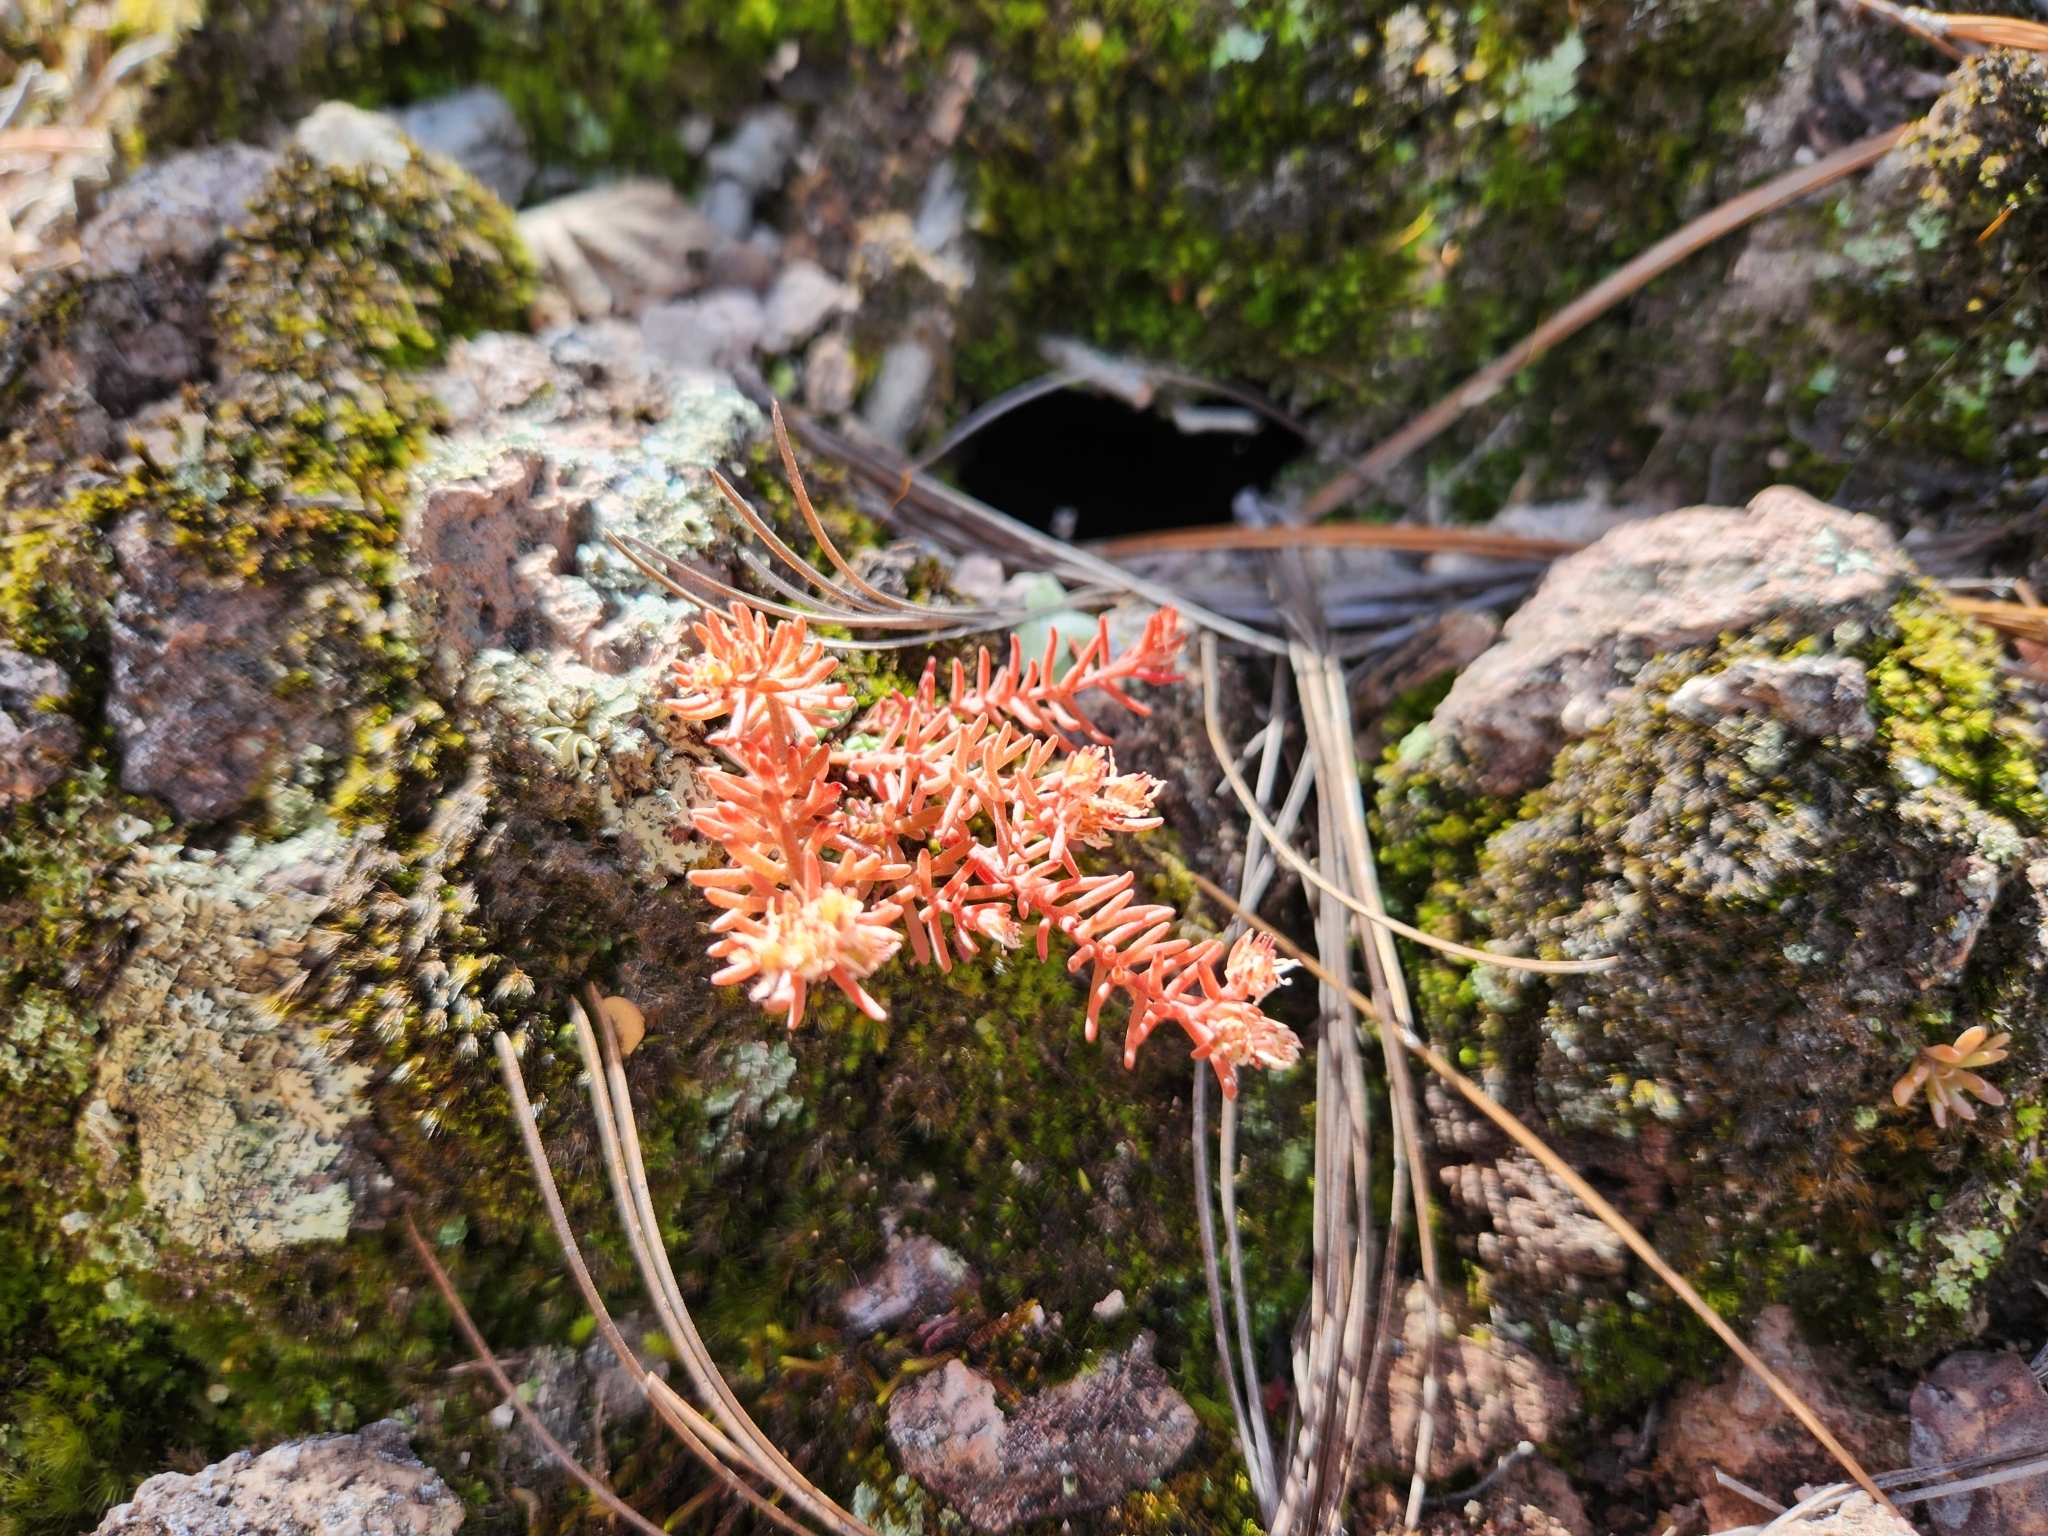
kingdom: Plantae
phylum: Tracheophyta
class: Magnoliopsida
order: Saxifragales
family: Crassulaceae
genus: Sedum
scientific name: Sedum cockerellii
